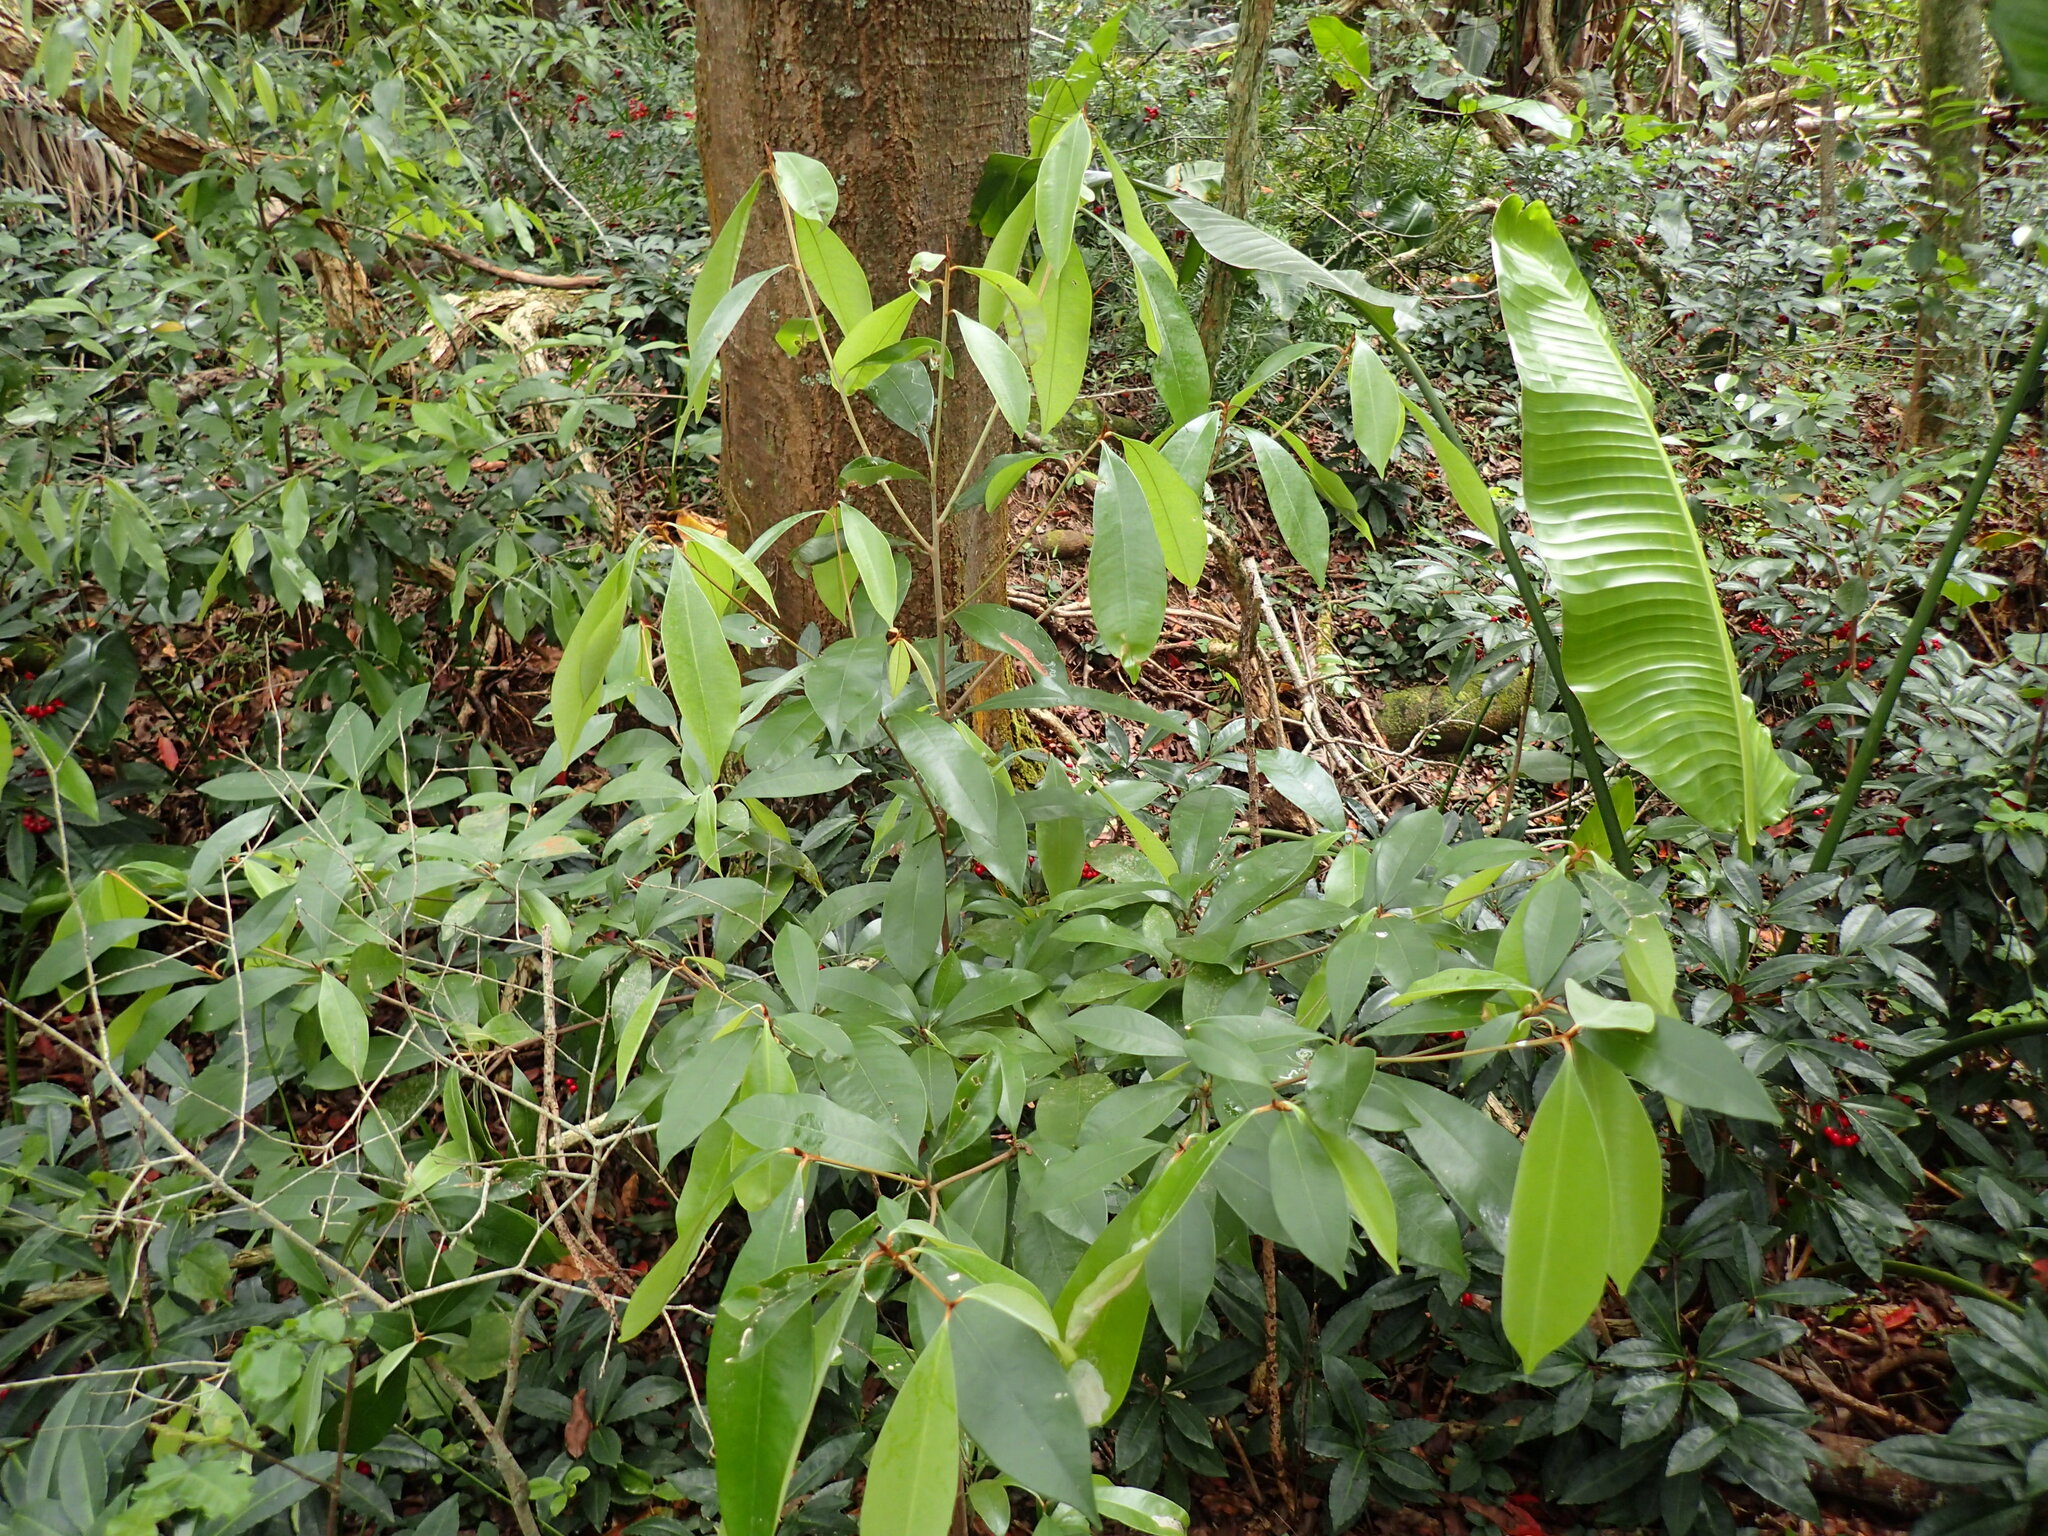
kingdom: Plantae
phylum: Tracheophyta
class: Magnoliopsida
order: Ericales
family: Sapotaceae
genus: Englerophytum
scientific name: Englerophytum natalense
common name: Silver-leaved milkplum
